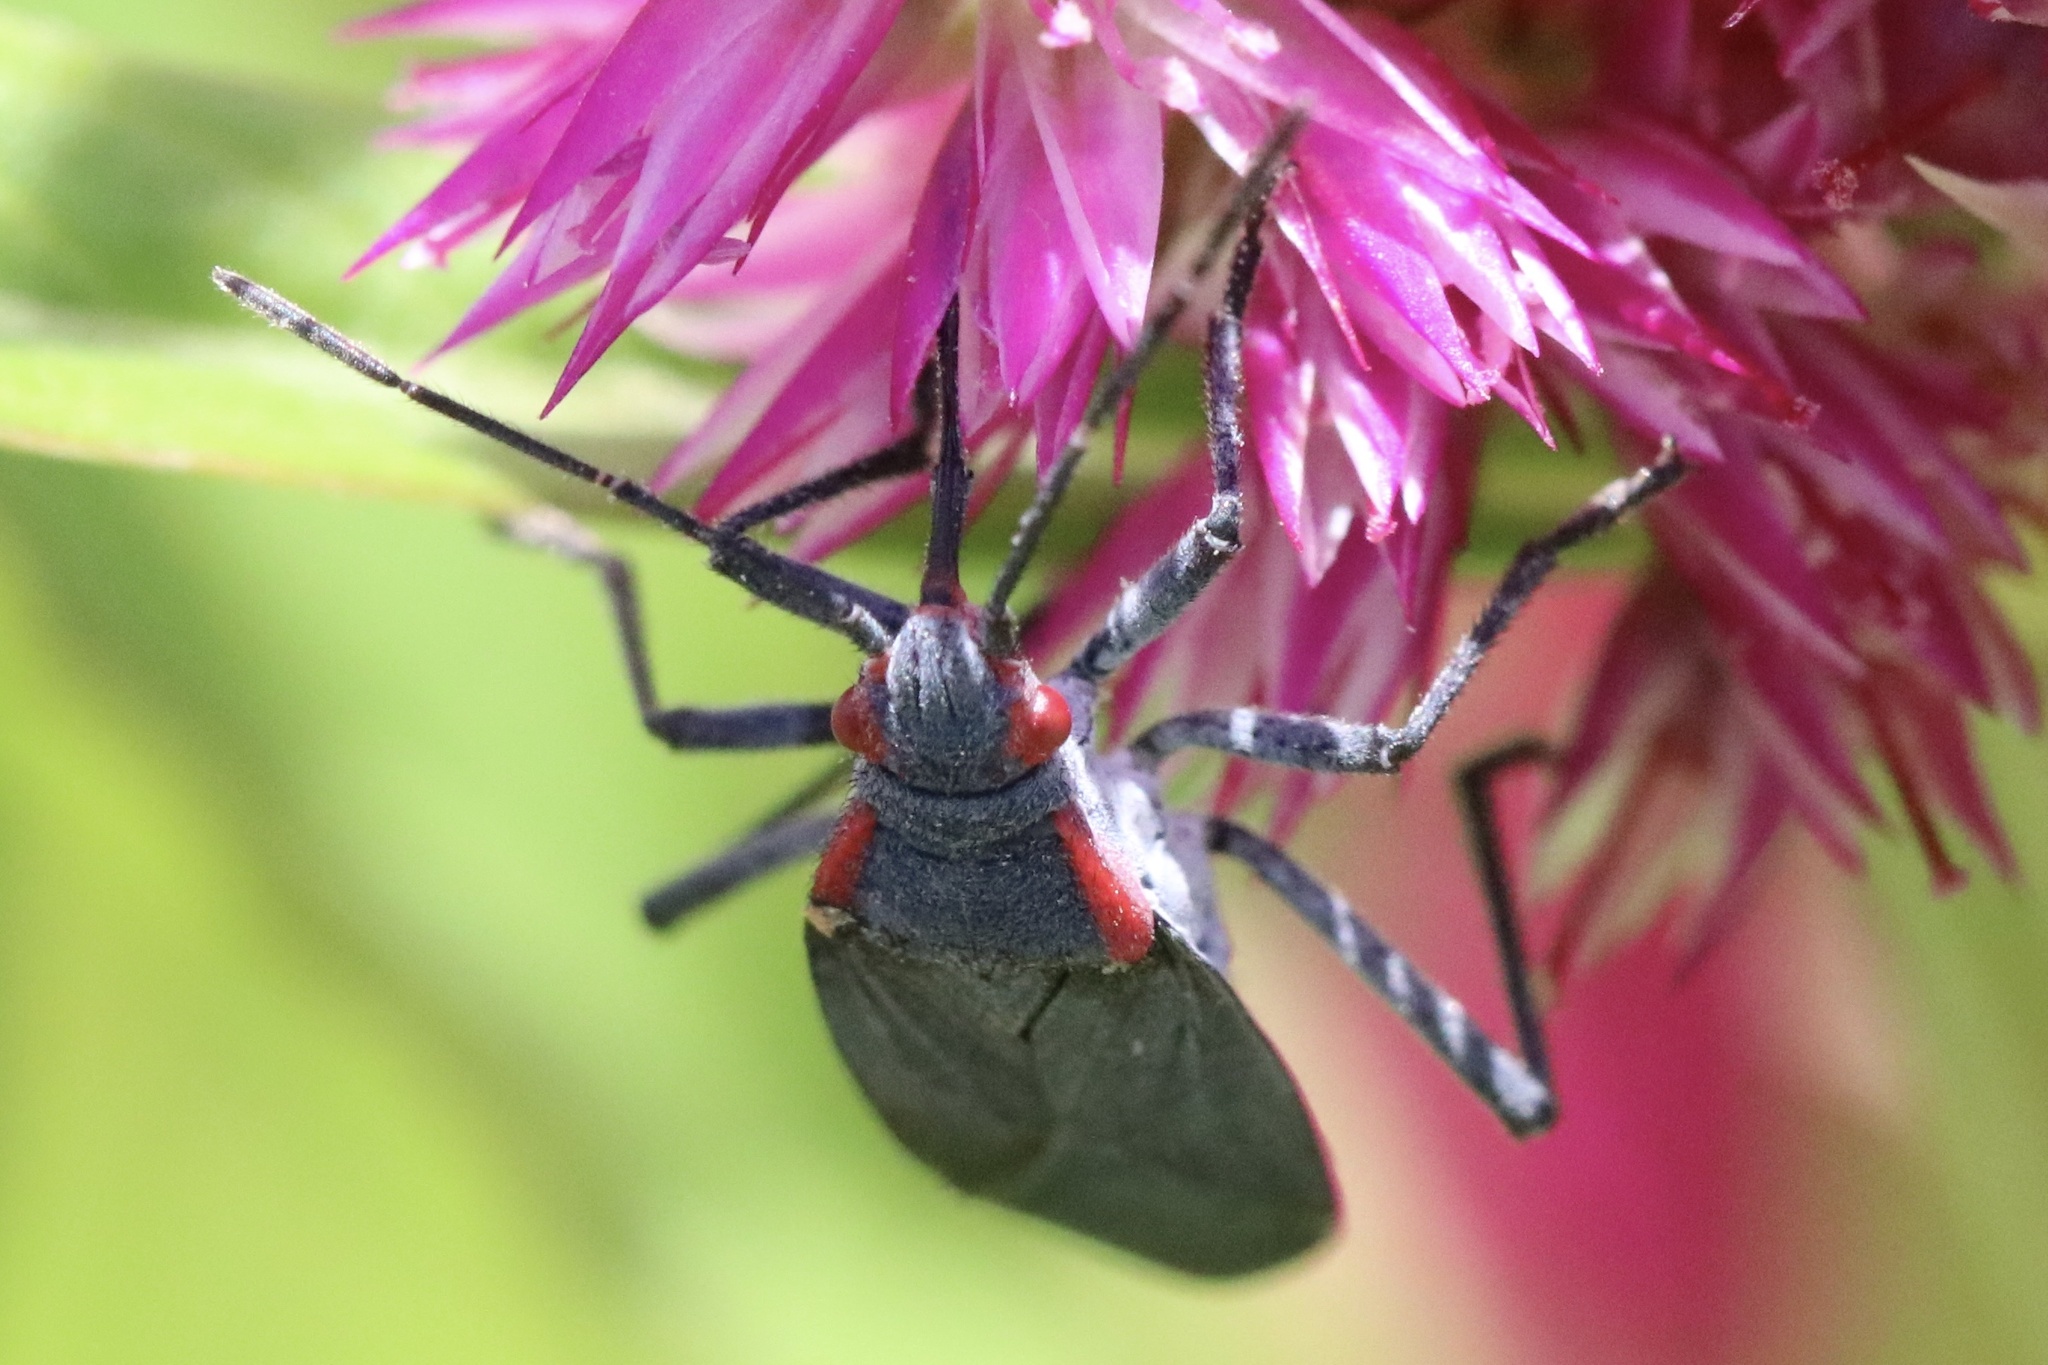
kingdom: Animalia
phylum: Arthropoda
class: Insecta
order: Hemiptera
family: Rhopalidae
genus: Jadera
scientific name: Jadera haematoloma
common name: Red-shouldered bug
